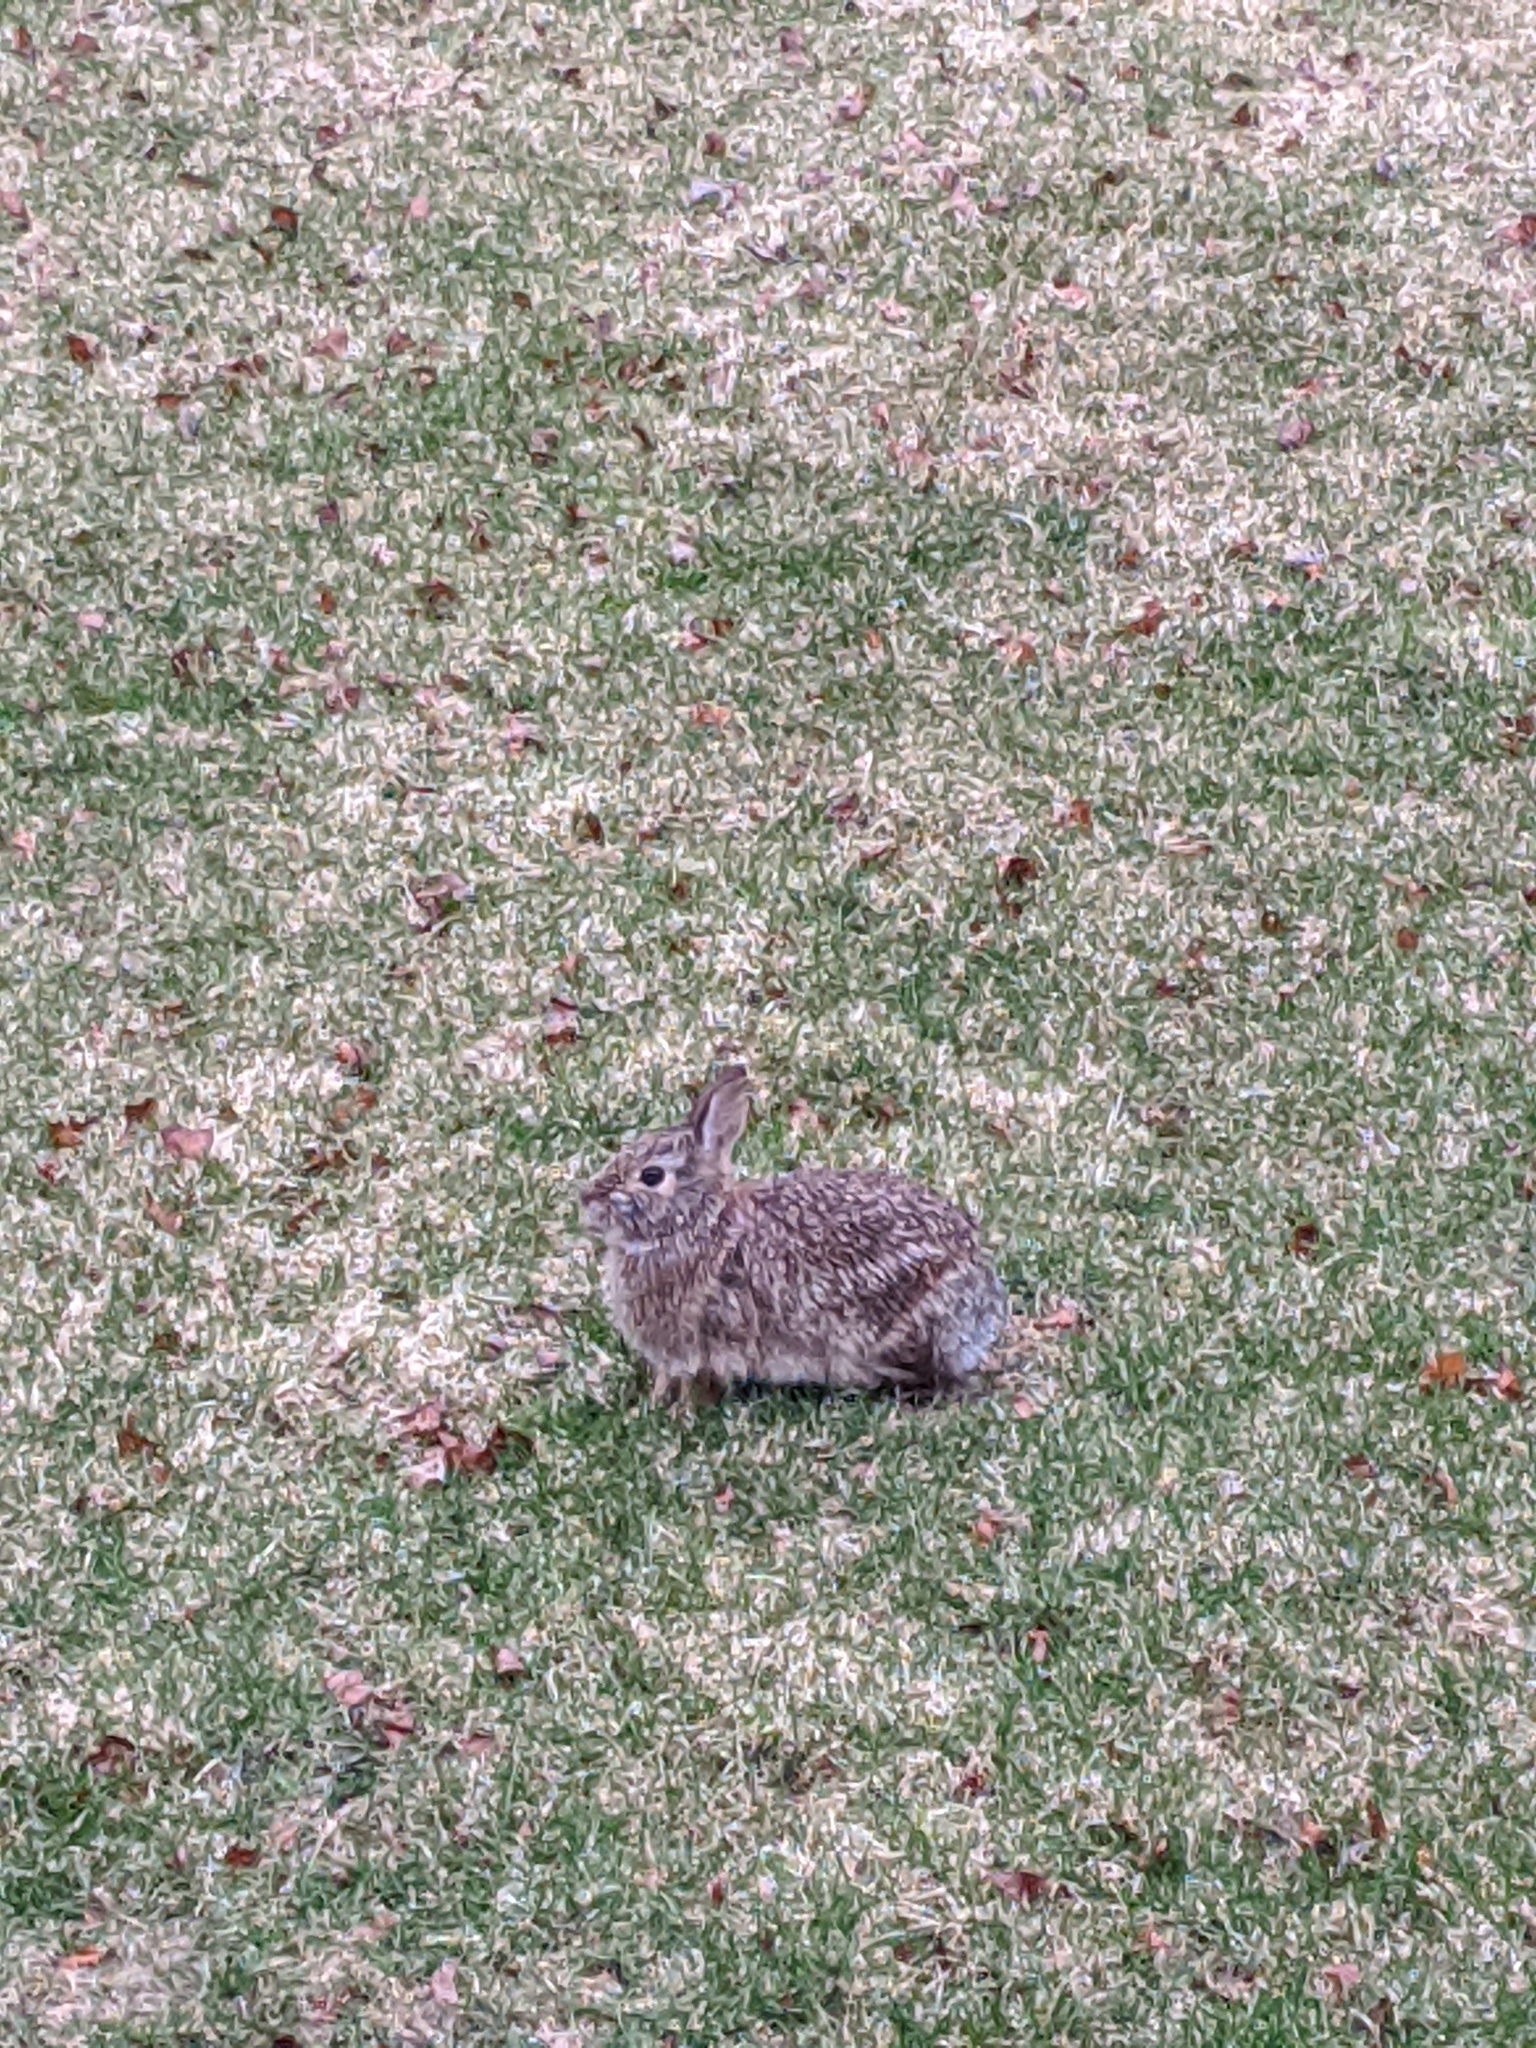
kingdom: Animalia
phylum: Chordata
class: Mammalia
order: Lagomorpha
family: Leporidae
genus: Sylvilagus
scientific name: Sylvilagus floridanus
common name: Eastern cottontail
